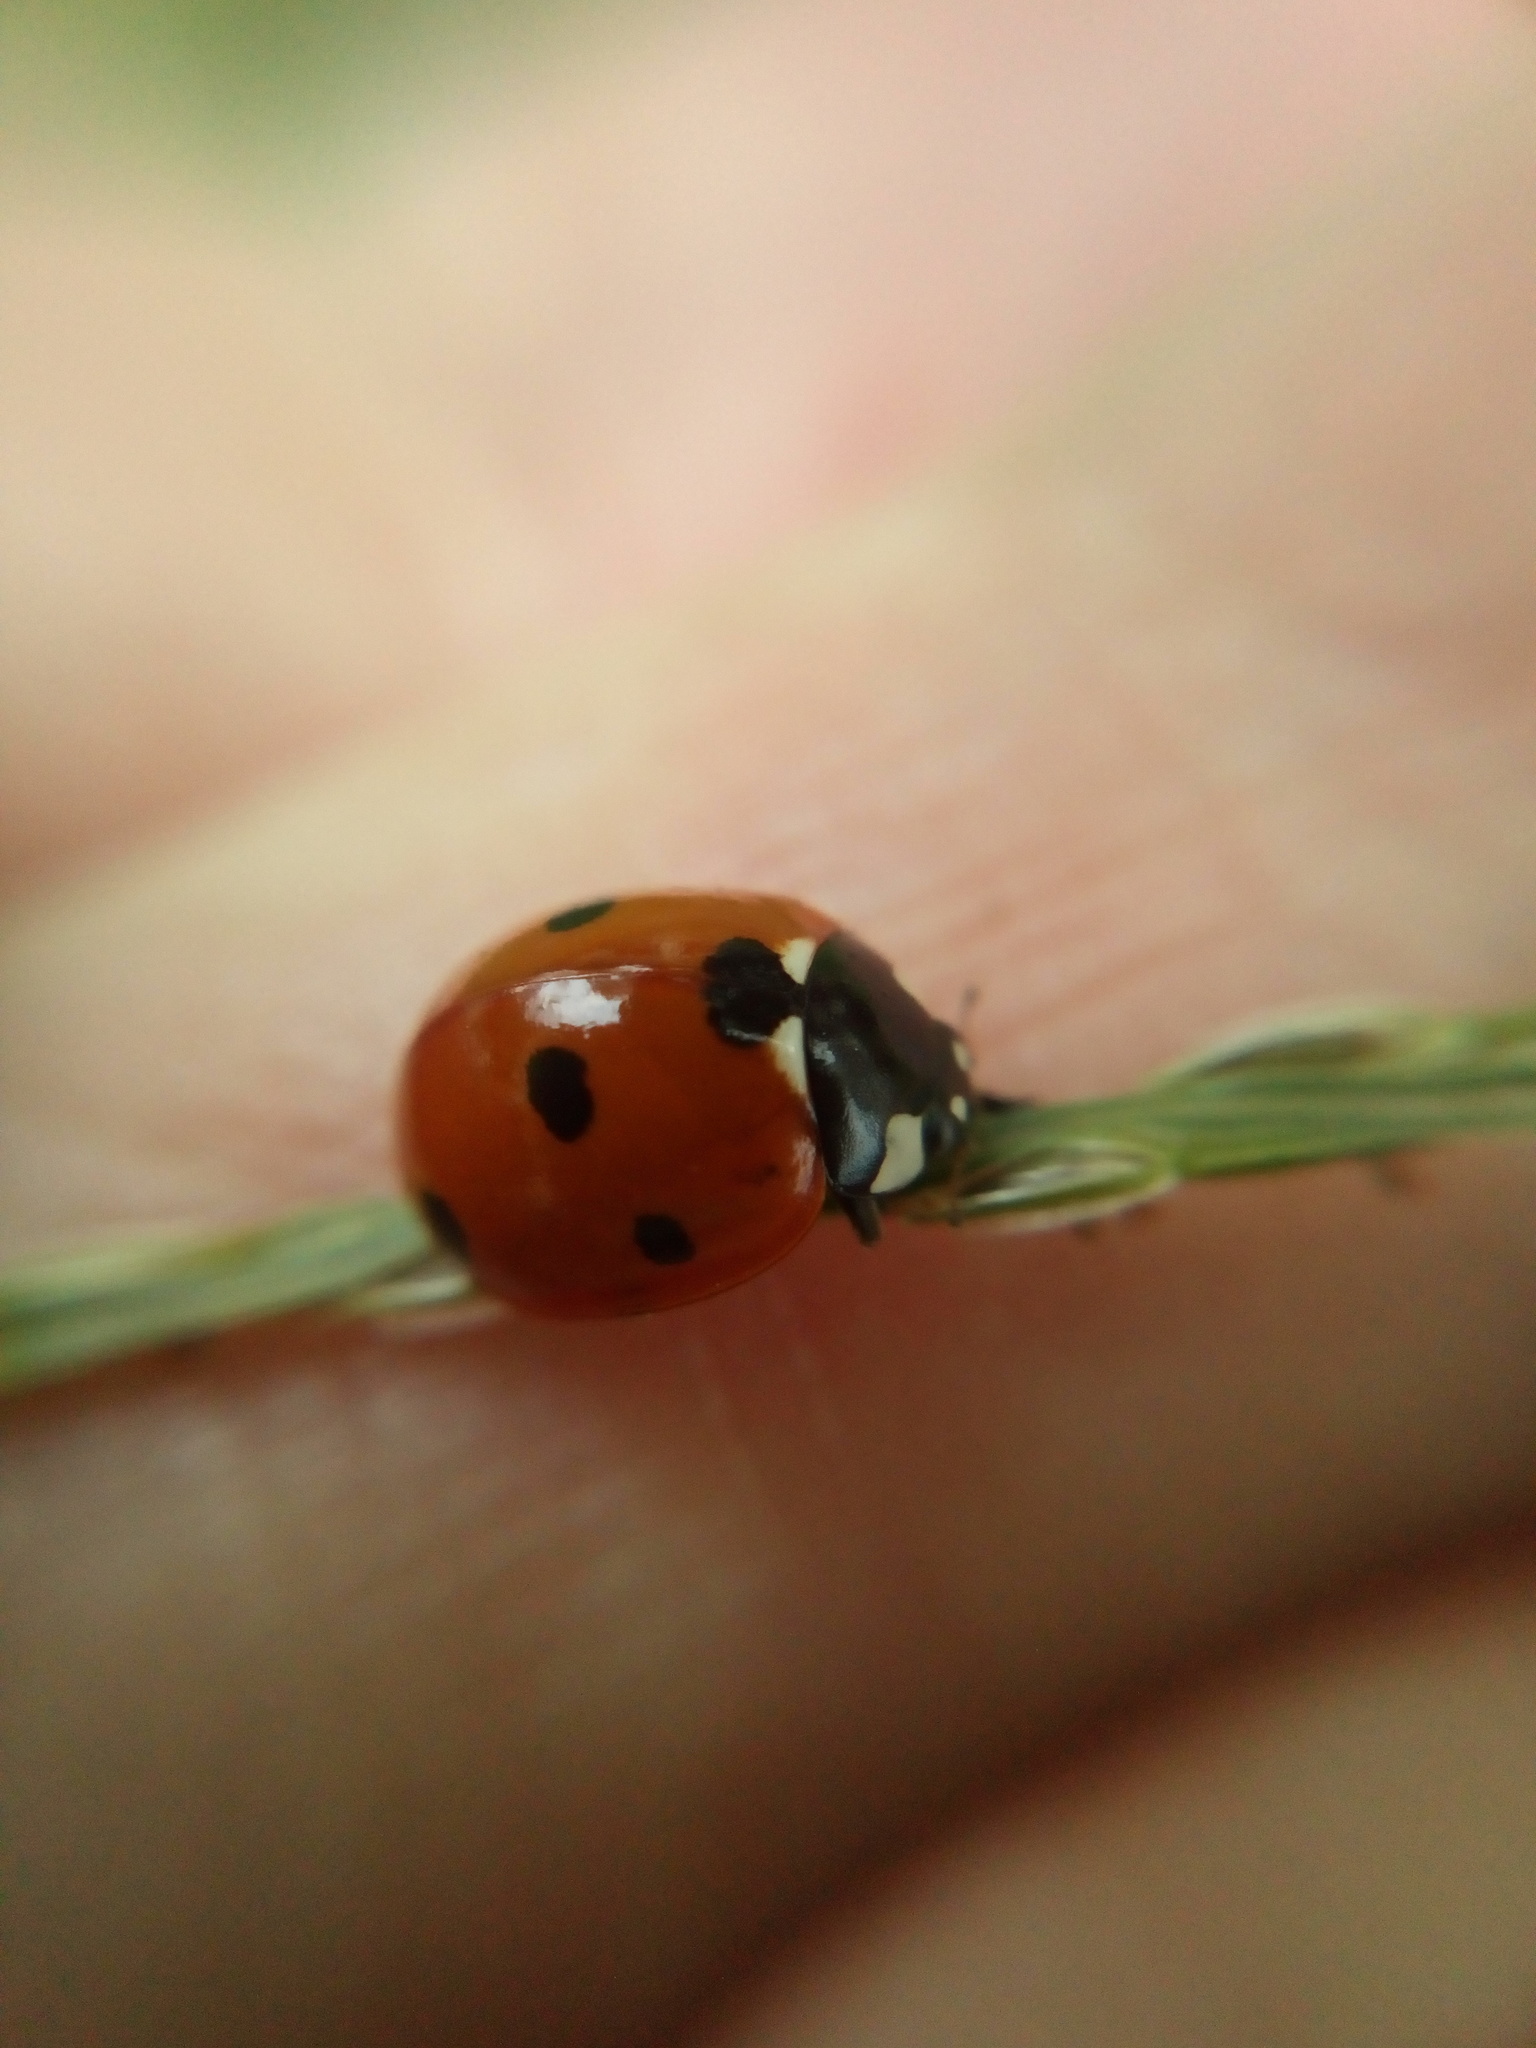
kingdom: Animalia
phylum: Arthropoda
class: Insecta
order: Coleoptera
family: Coccinellidae
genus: Coccinella
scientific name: Coccinella septempunctata
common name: Sevenspotted lady beetle
